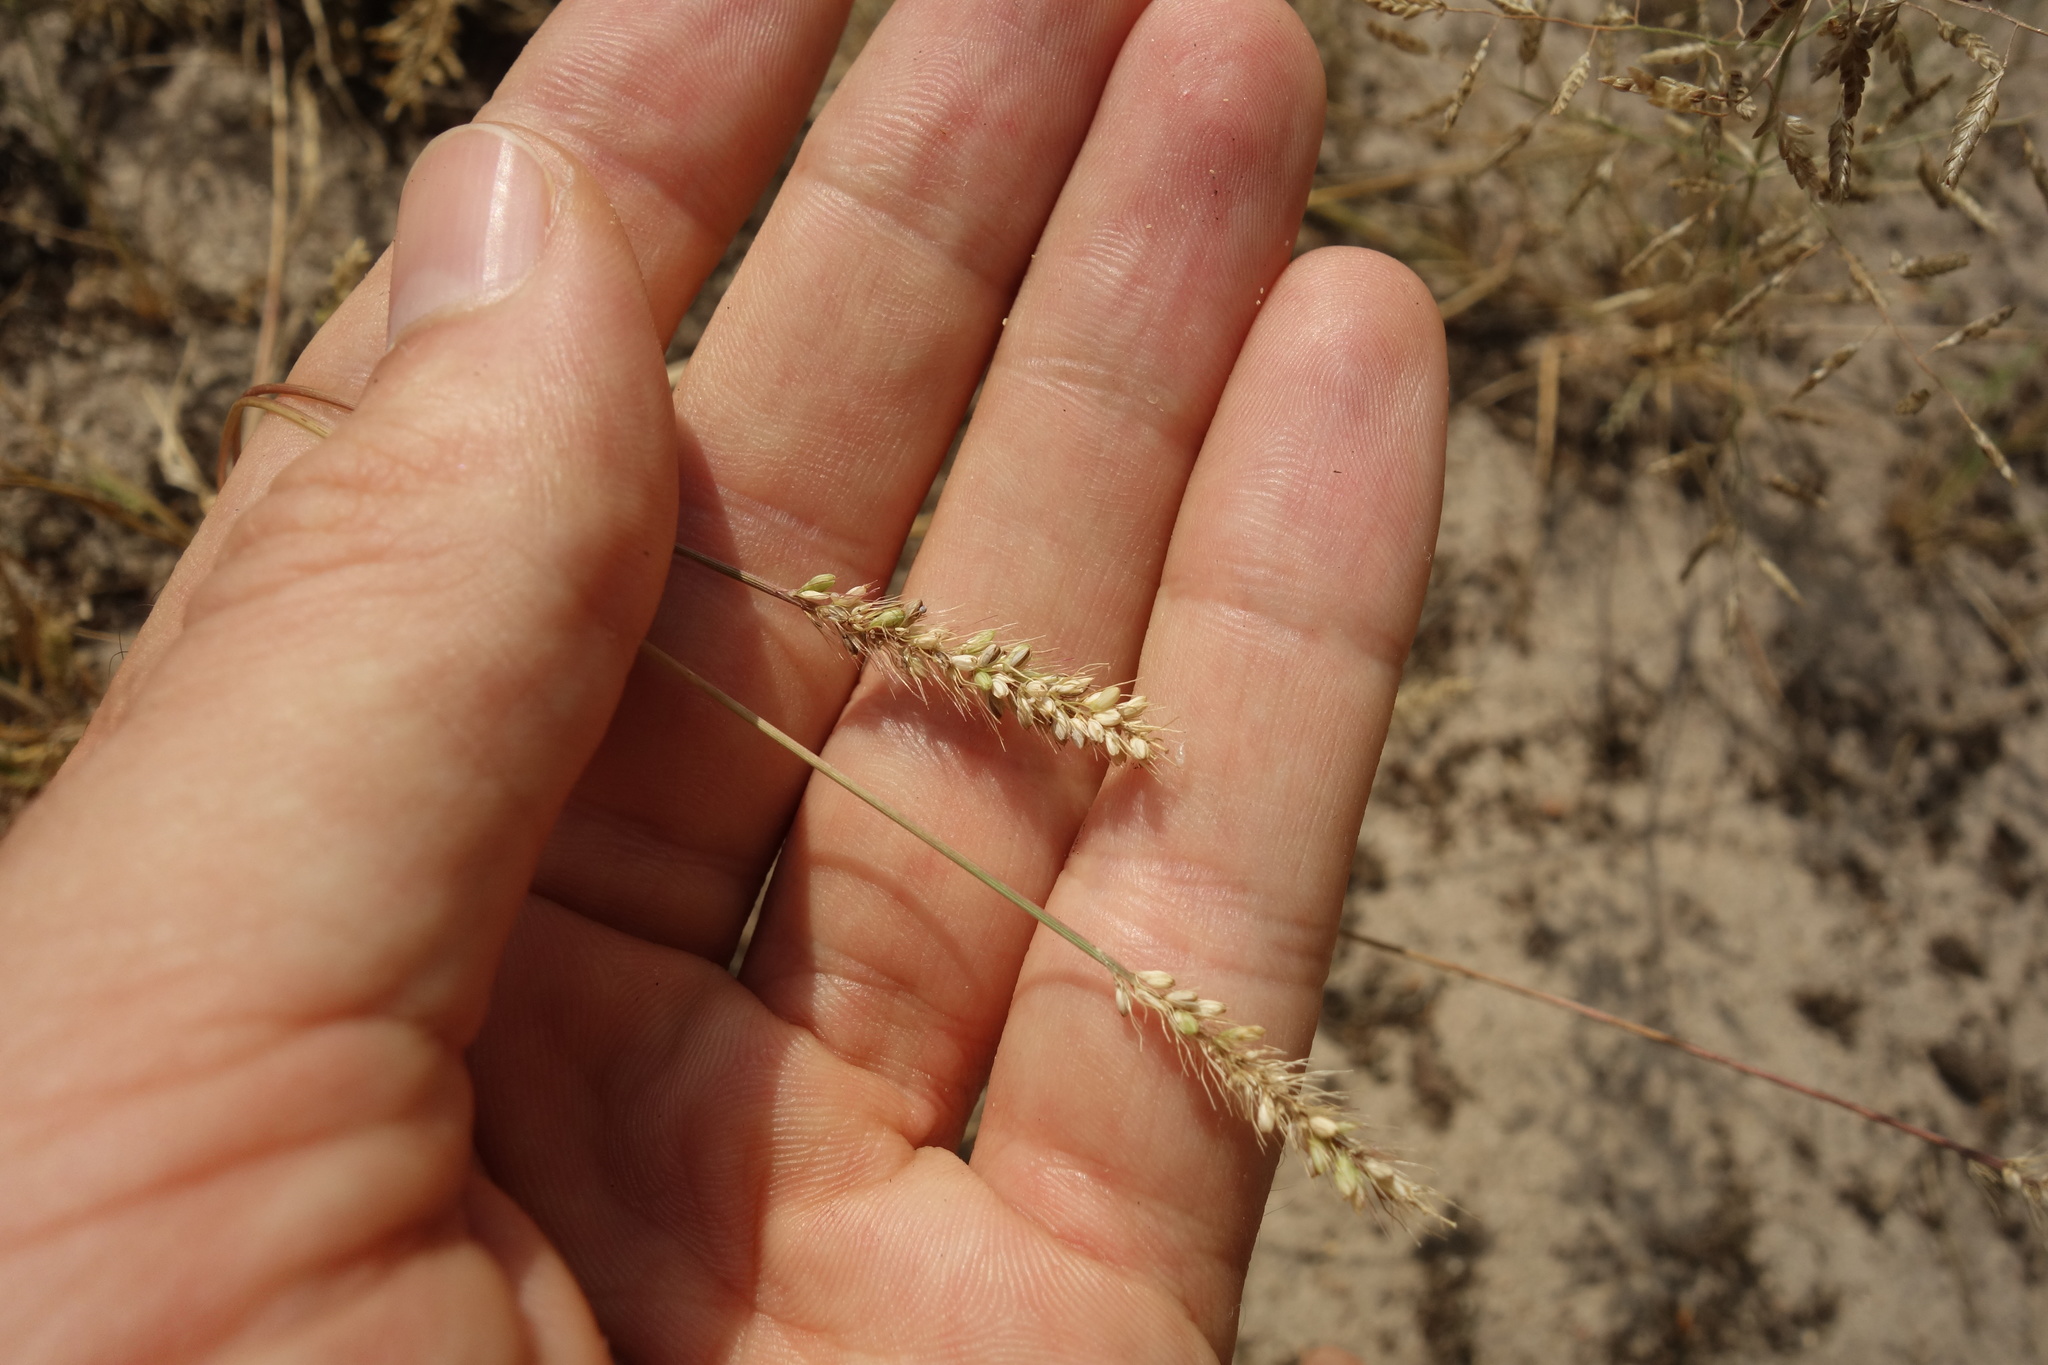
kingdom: Plantae
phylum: Tracheophyta
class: Liliopsida
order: Poales
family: Poaceae
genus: Setaria
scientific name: Setaria viridis
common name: Green bristlegrass
